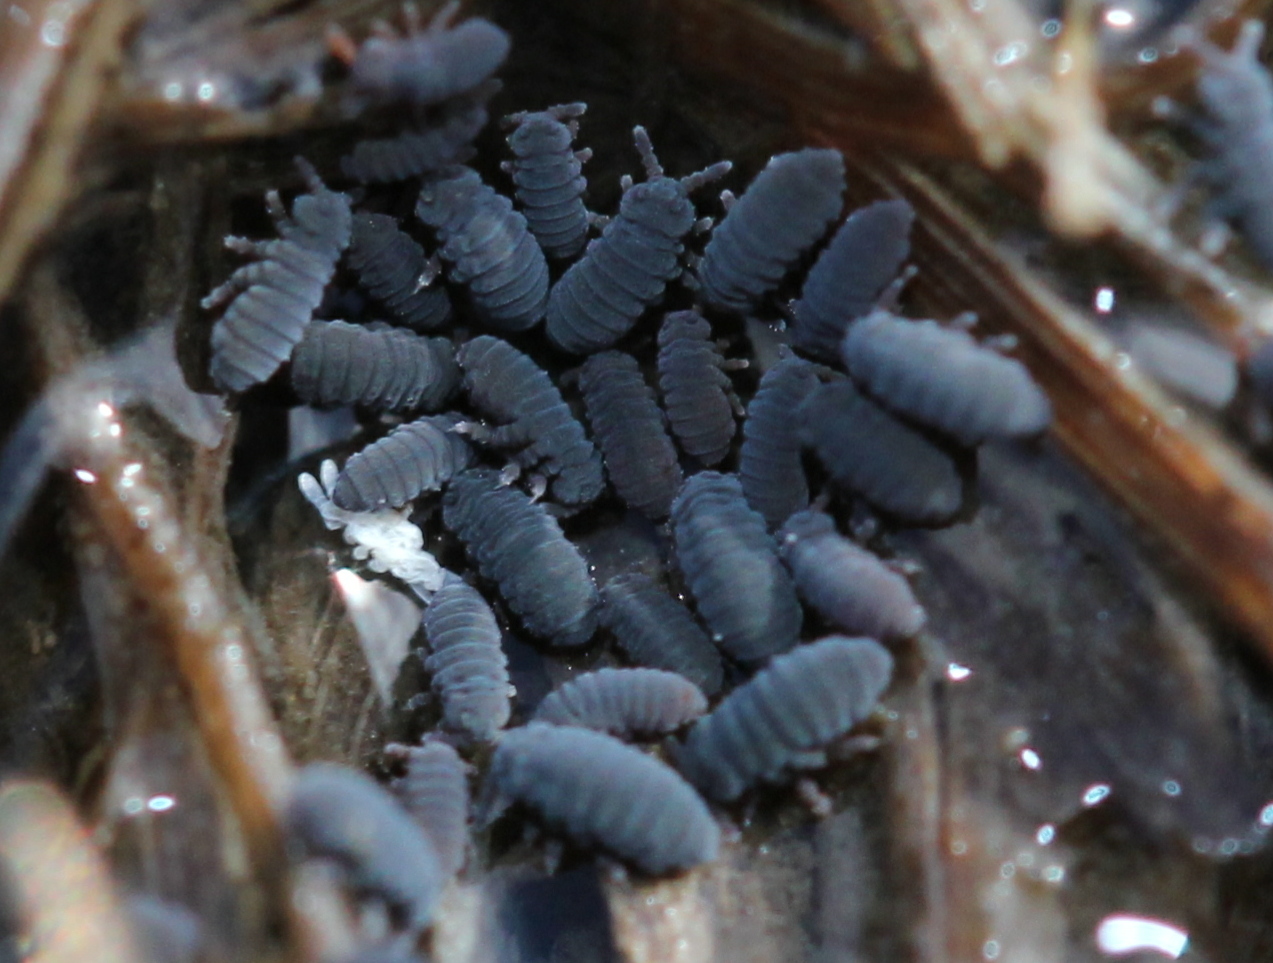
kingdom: Animalia
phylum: Arthropoda
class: Collembola
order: Poduromorpha
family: Poduridae
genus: Podura
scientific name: Podura aquatica
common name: Water springtail
